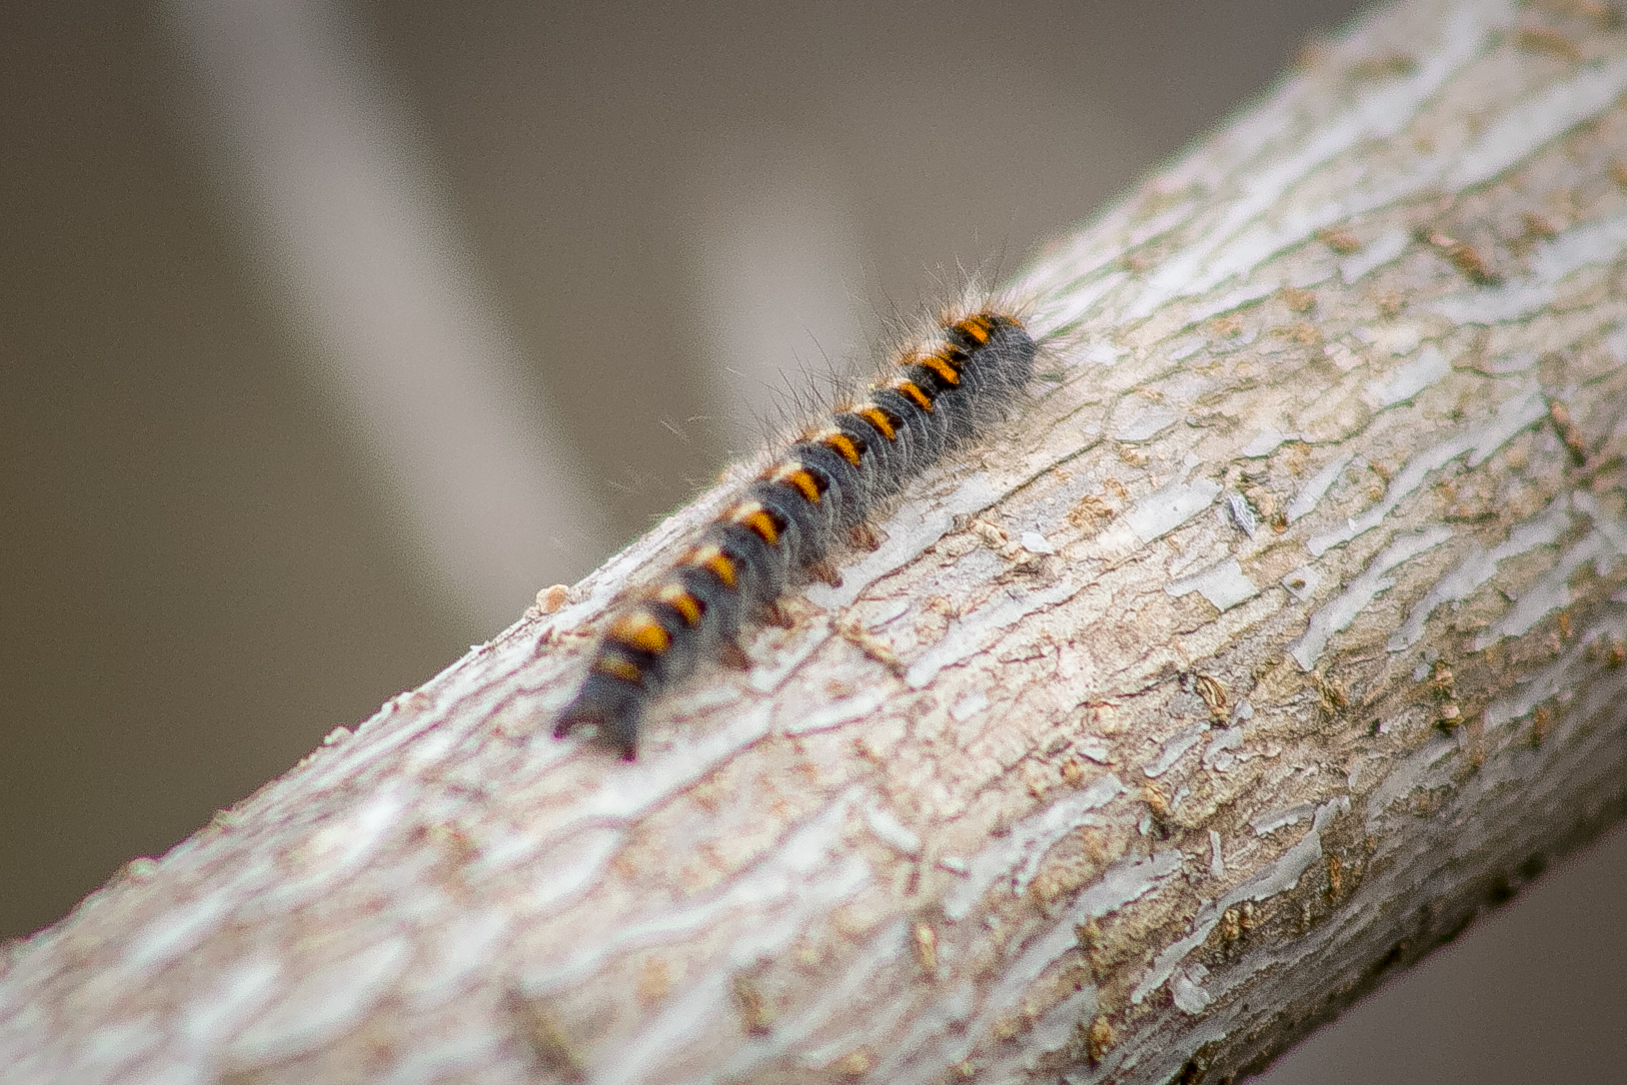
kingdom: Animalia
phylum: Arthropoda
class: Insecta
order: Lepidoptera
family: Lasiocampidae
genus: Lasiocampa
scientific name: Lasiocampa quercus
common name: Oak eggar
